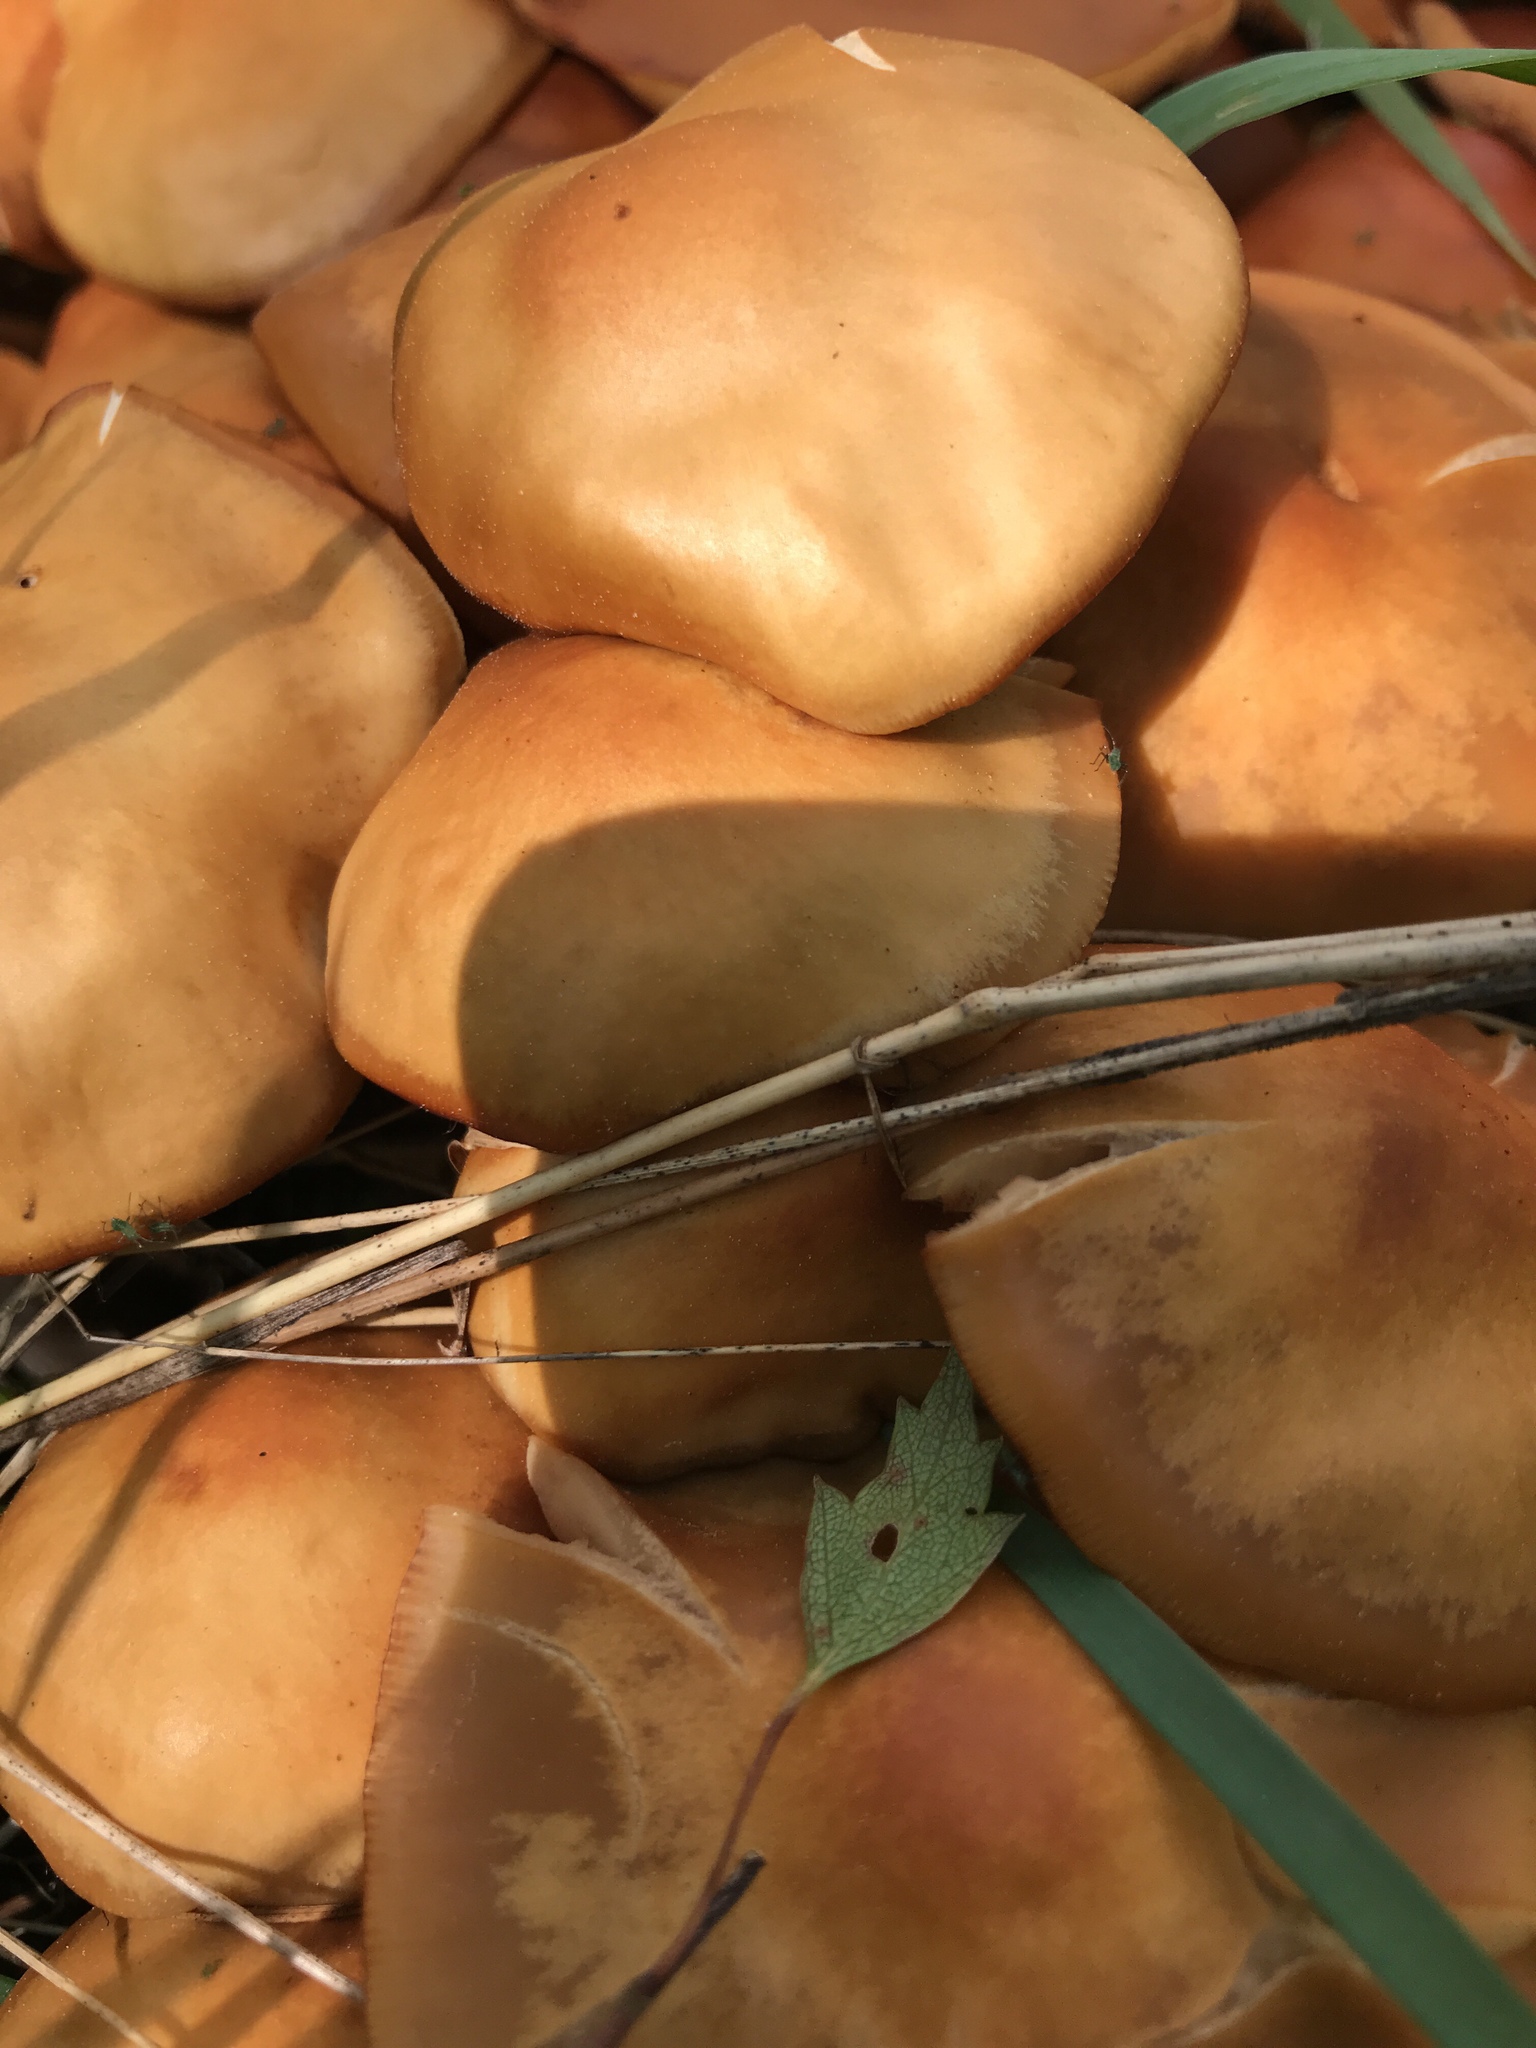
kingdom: Fungi
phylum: Basidiomycota
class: Agaricomycetes
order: Agaricales
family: Strophariaceae
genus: Kuehneromyces
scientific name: Kuehneromyces mutabilis
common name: Sheathed woodtuft
